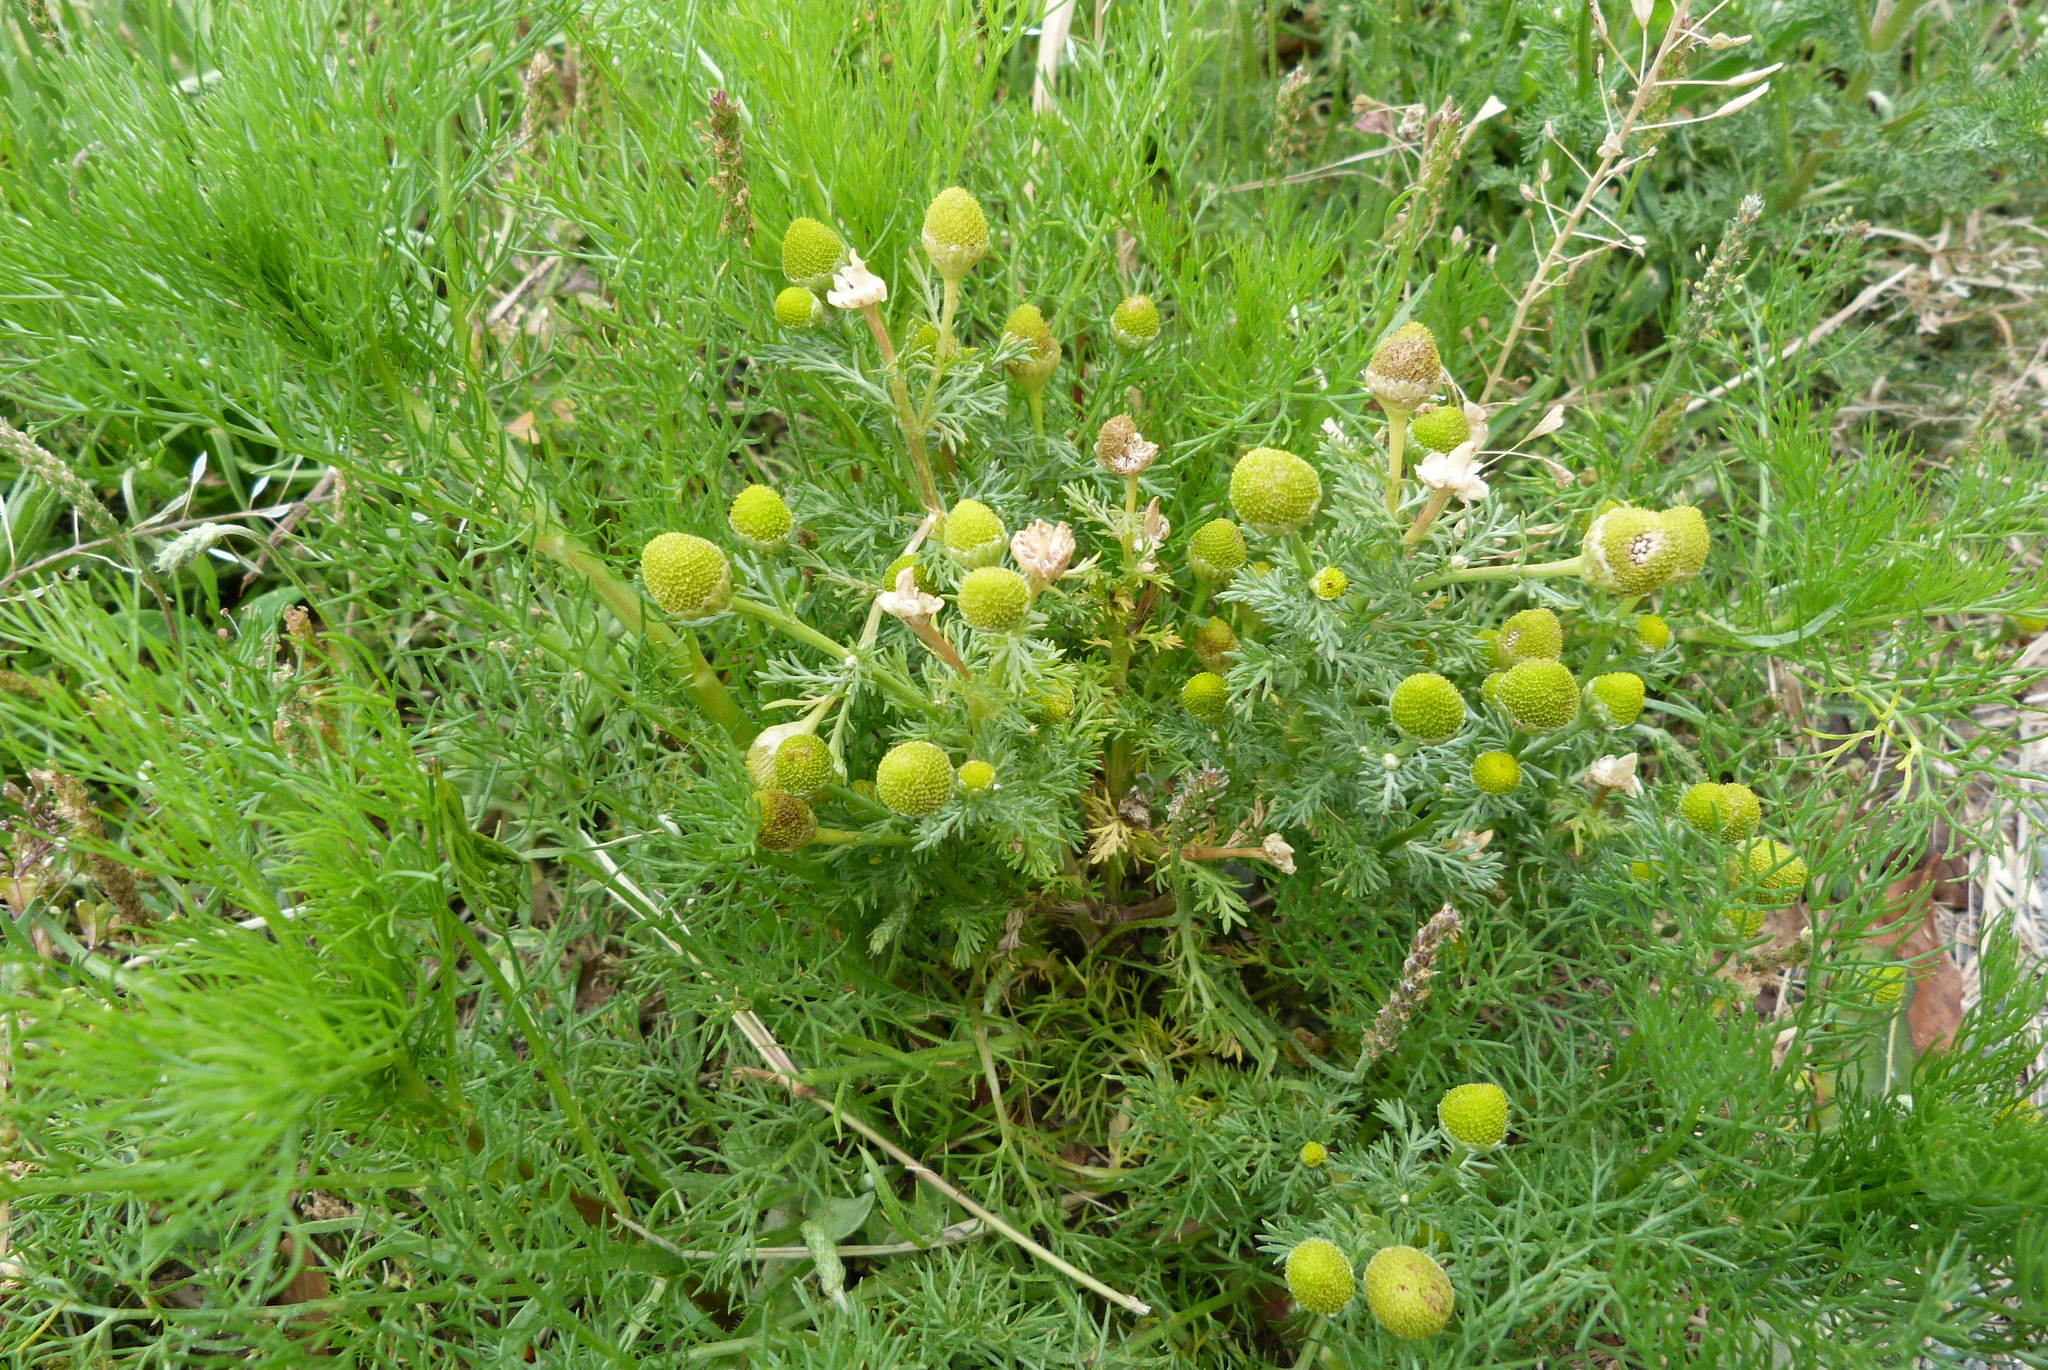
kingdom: Plantae
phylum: Tracheophyta
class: Magnoliopsida
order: Asterales
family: Asteraceae
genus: Matricaria
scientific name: Matricaria discoidea
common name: Disc mayweed
